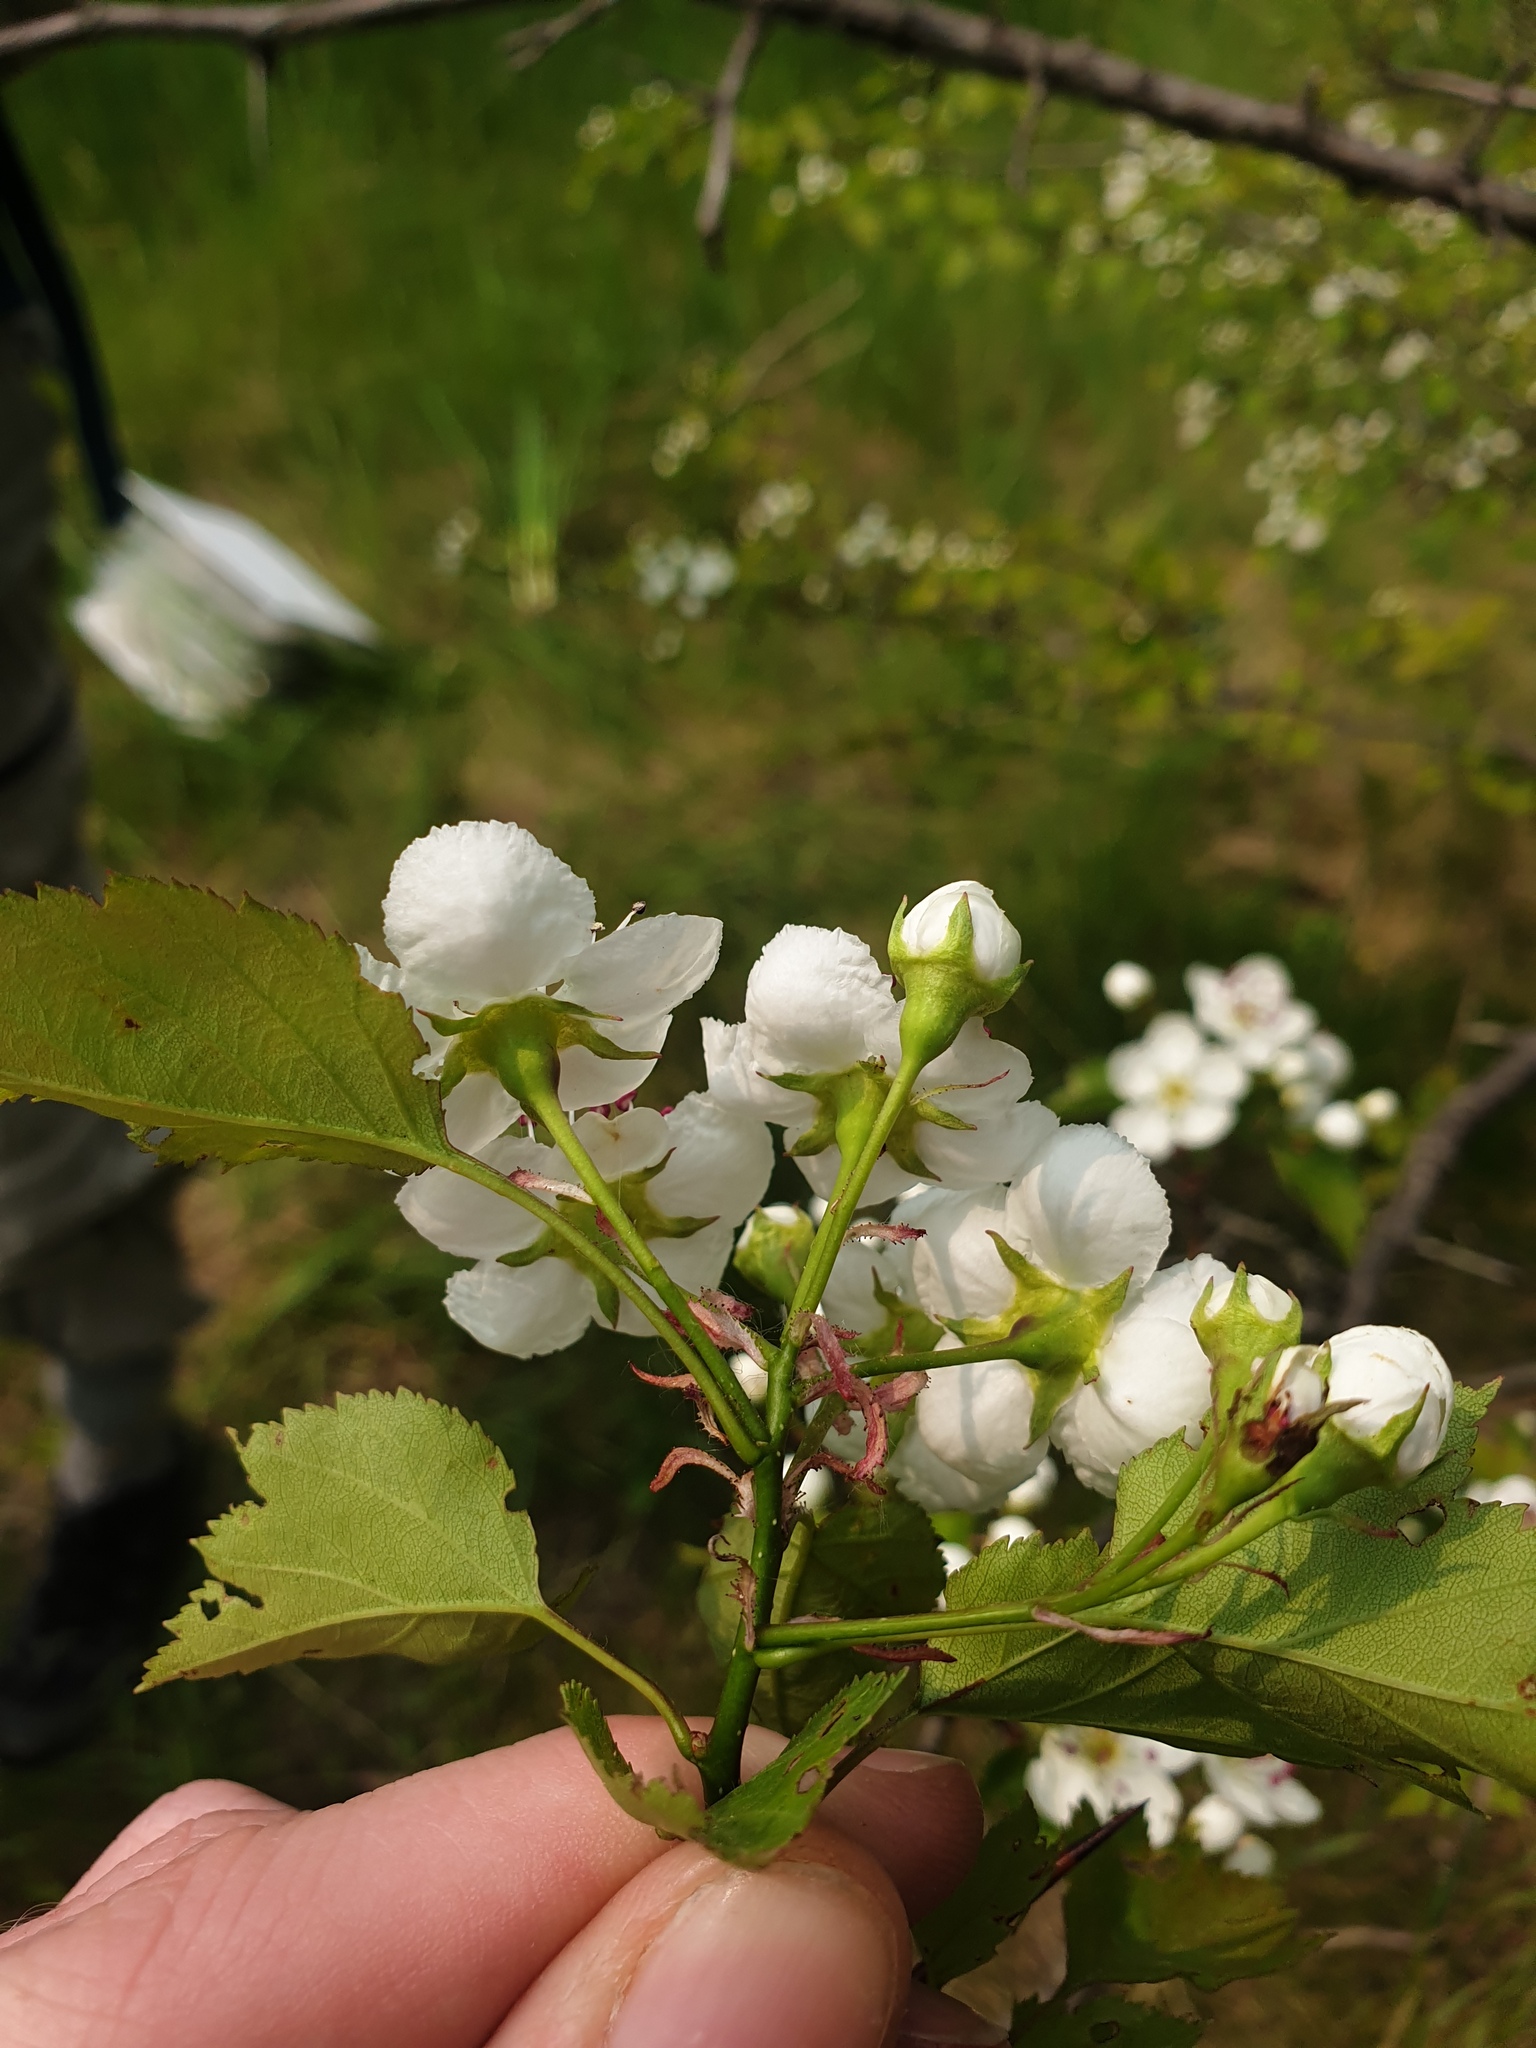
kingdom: Plantae
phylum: Tracheophyta
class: Magnoliopsida
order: Rosales
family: Rosaceae
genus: Crataegus
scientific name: Crataegus pruinosa
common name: Waxy-fruit hawthorn
